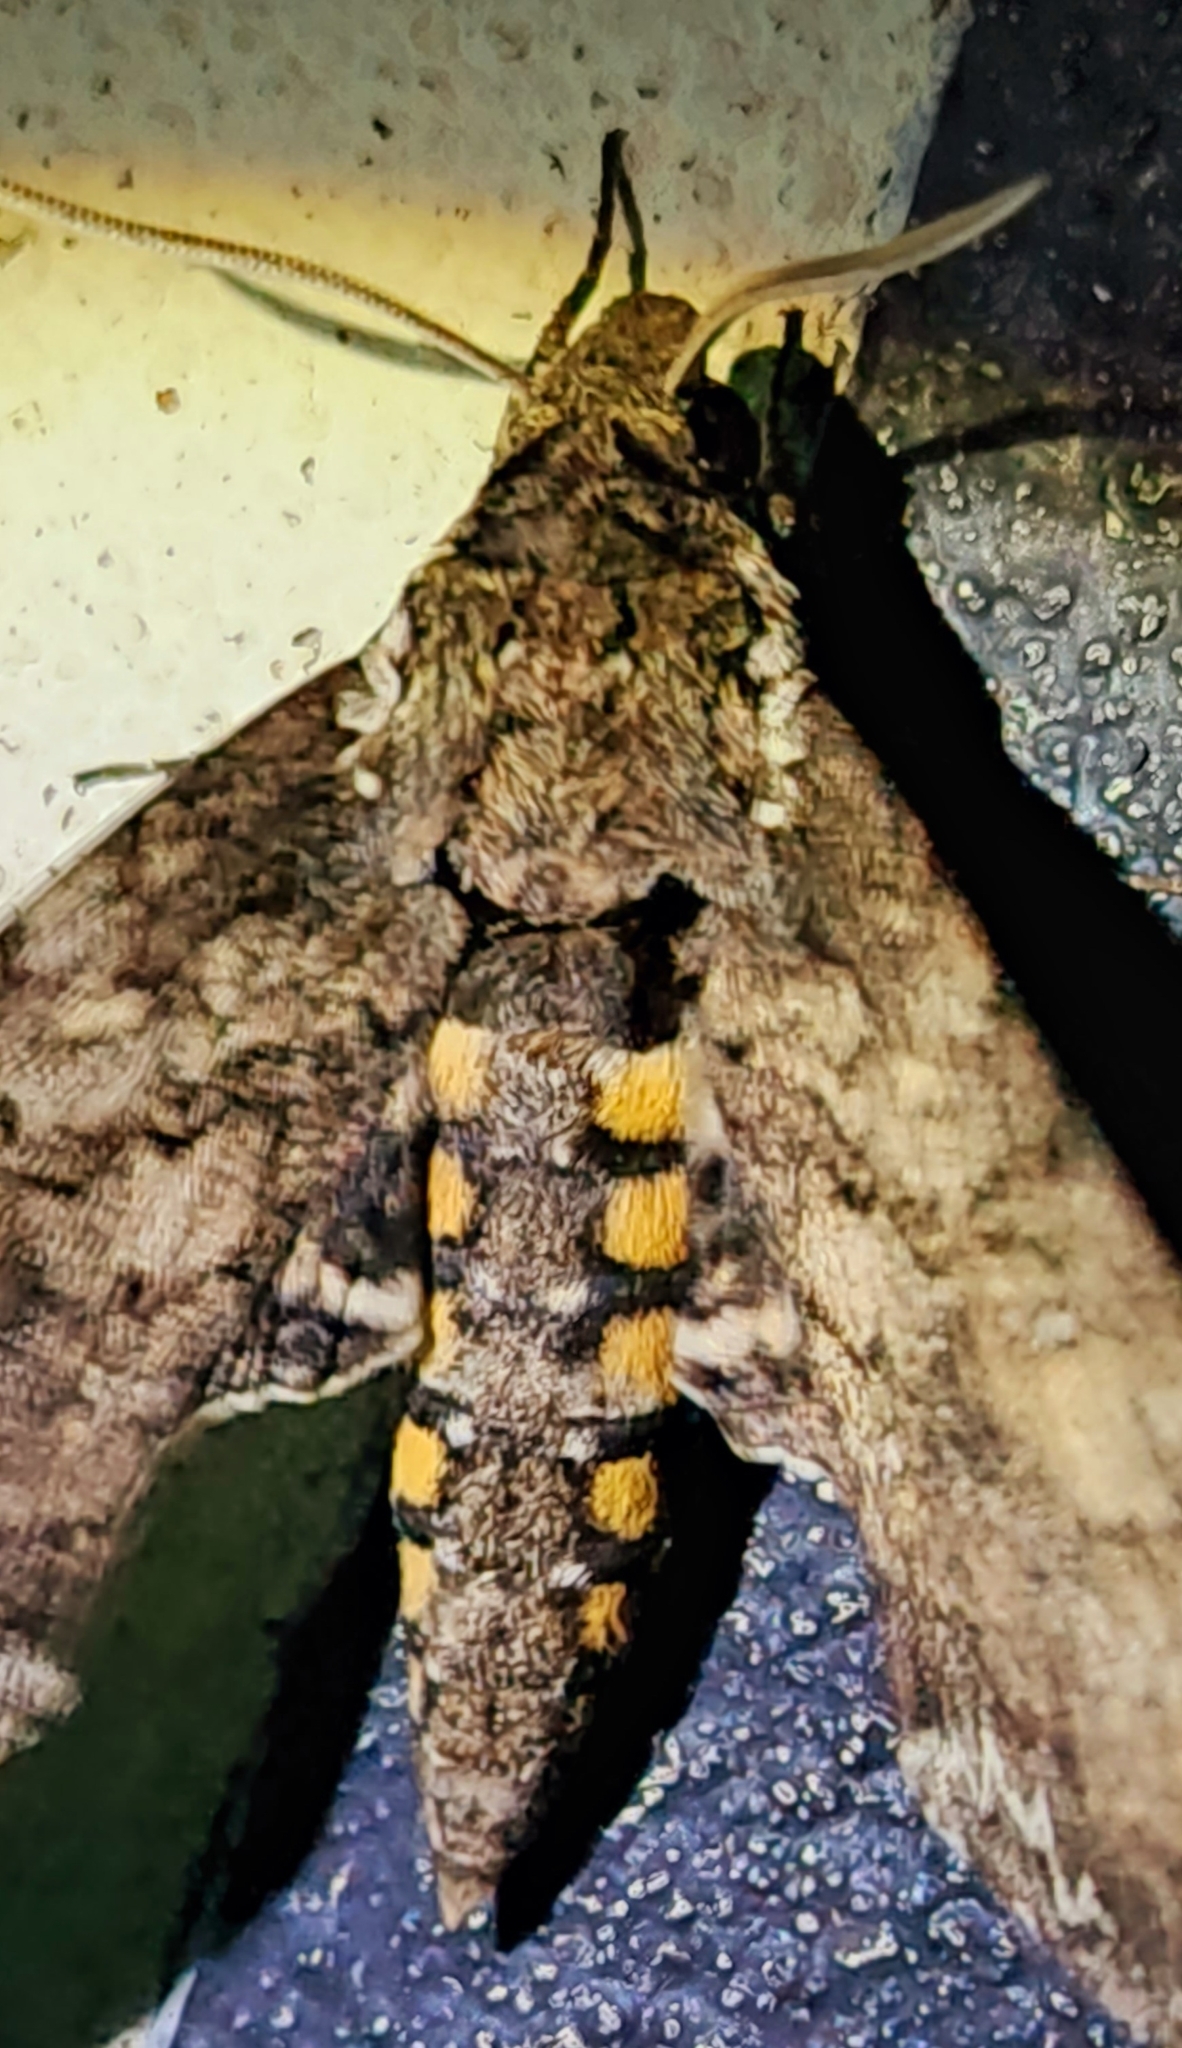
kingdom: Animalia
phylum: Arthropoda
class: Insecta
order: Lepidoptera
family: Sphingidae
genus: Manduca
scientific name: Manduca sexta
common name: Carolina sphinx
